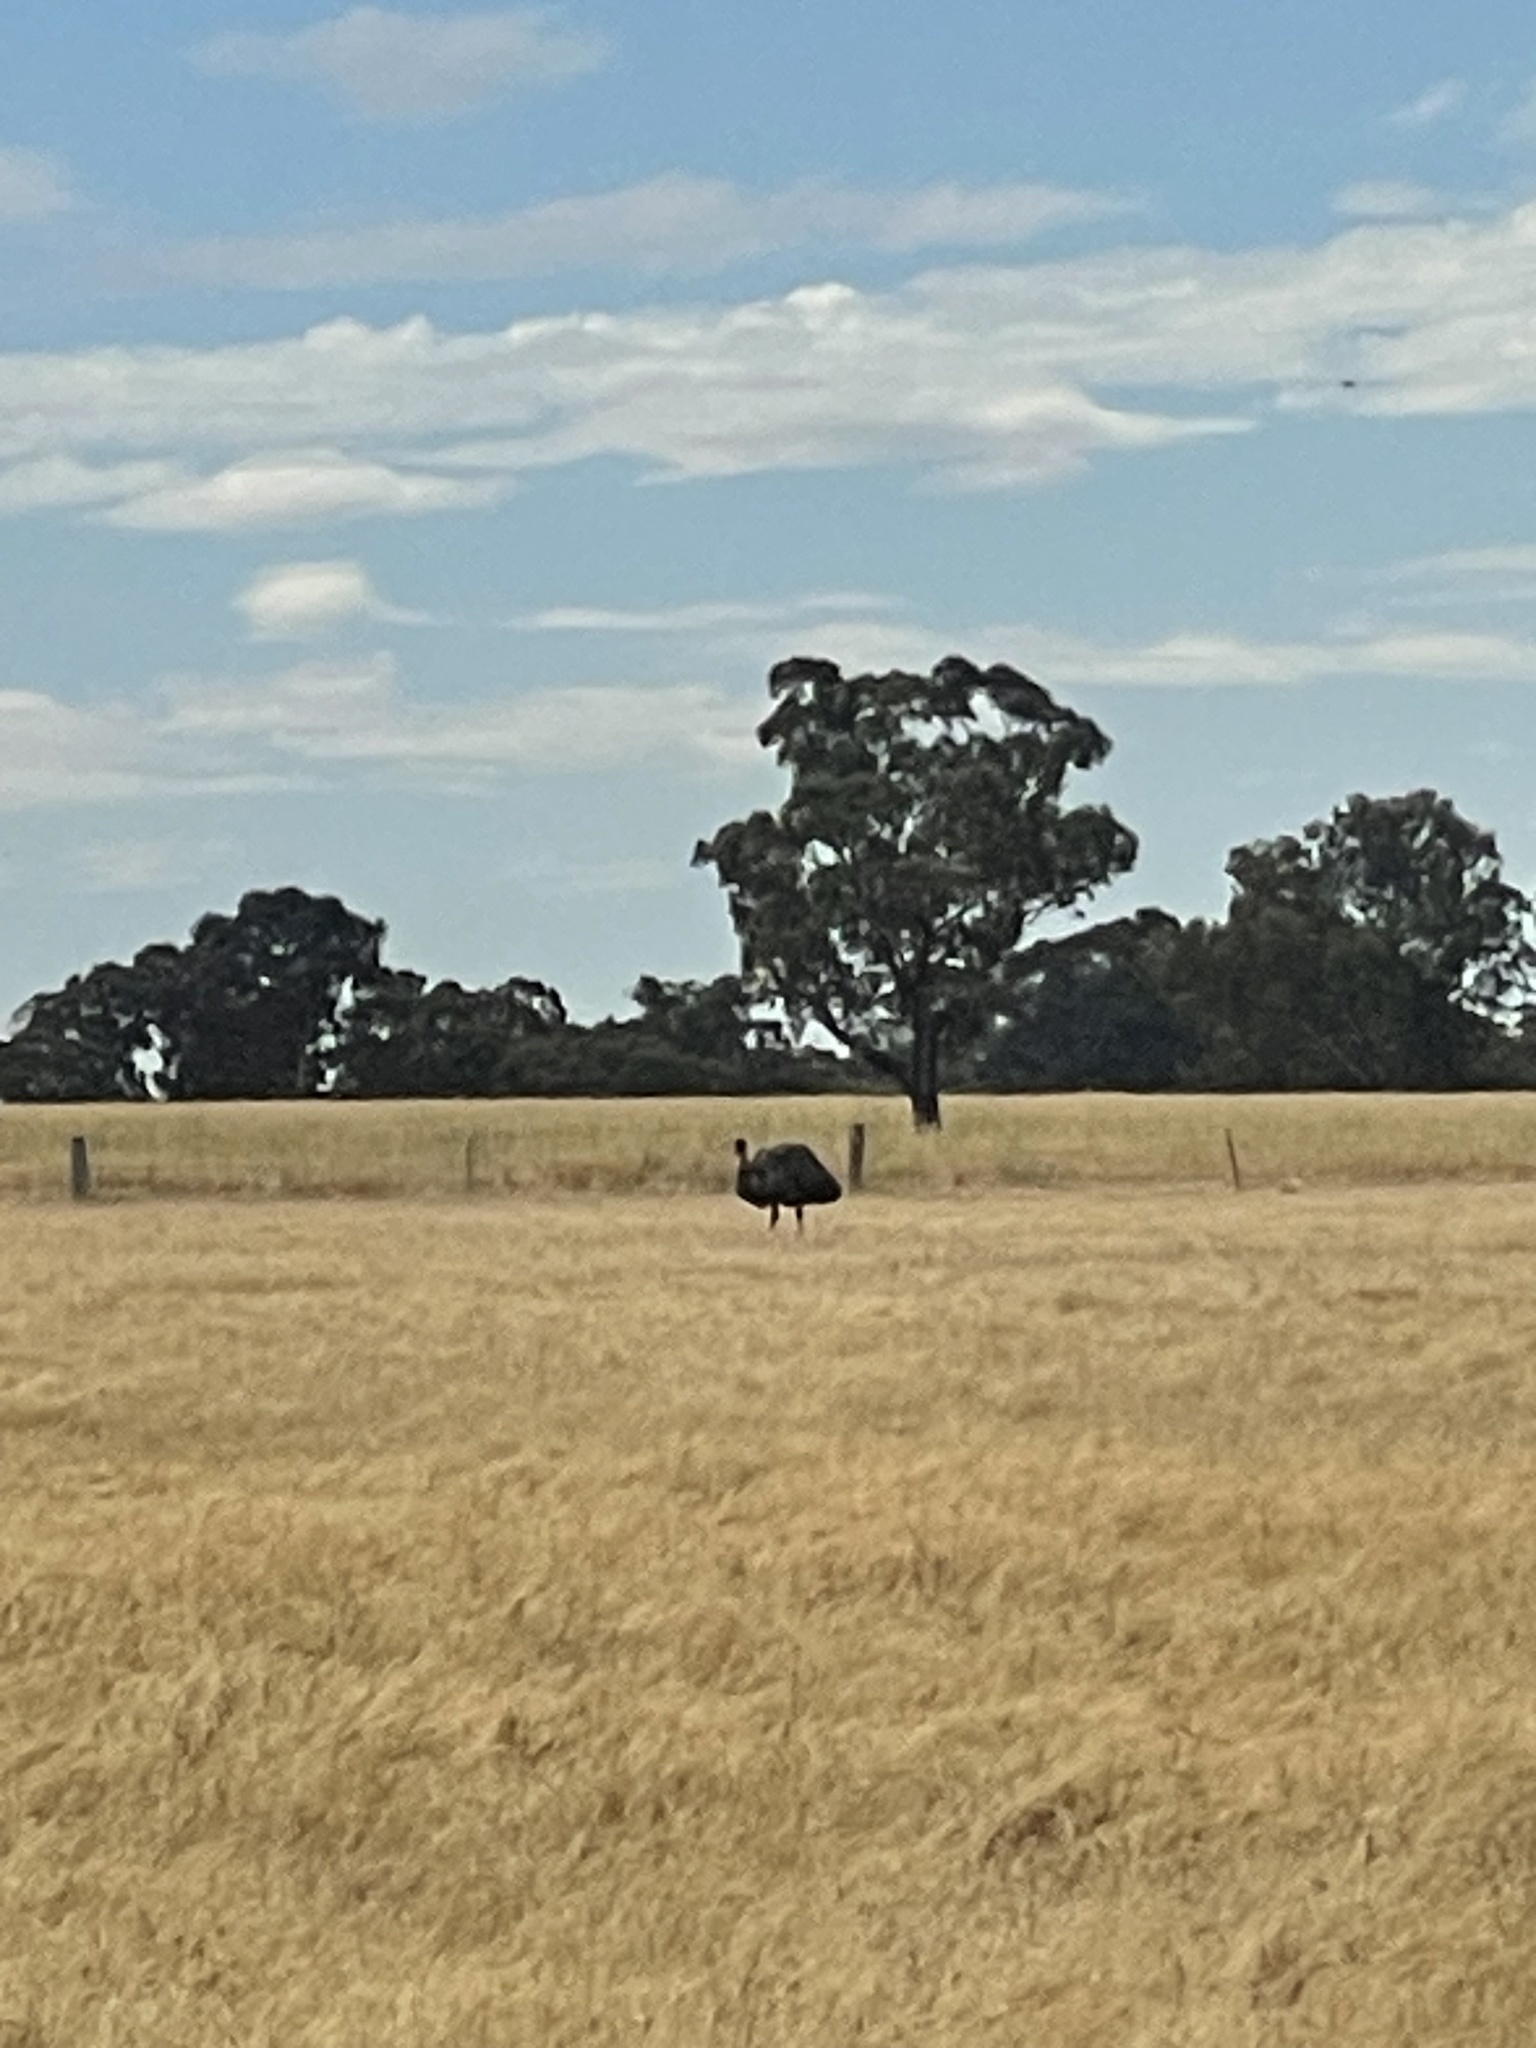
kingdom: Animalia
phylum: Chordata
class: Aves
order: Casuariiformes
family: Dromaiidae
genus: Dromaius
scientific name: Dromaius novaehollandiae
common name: Emu
